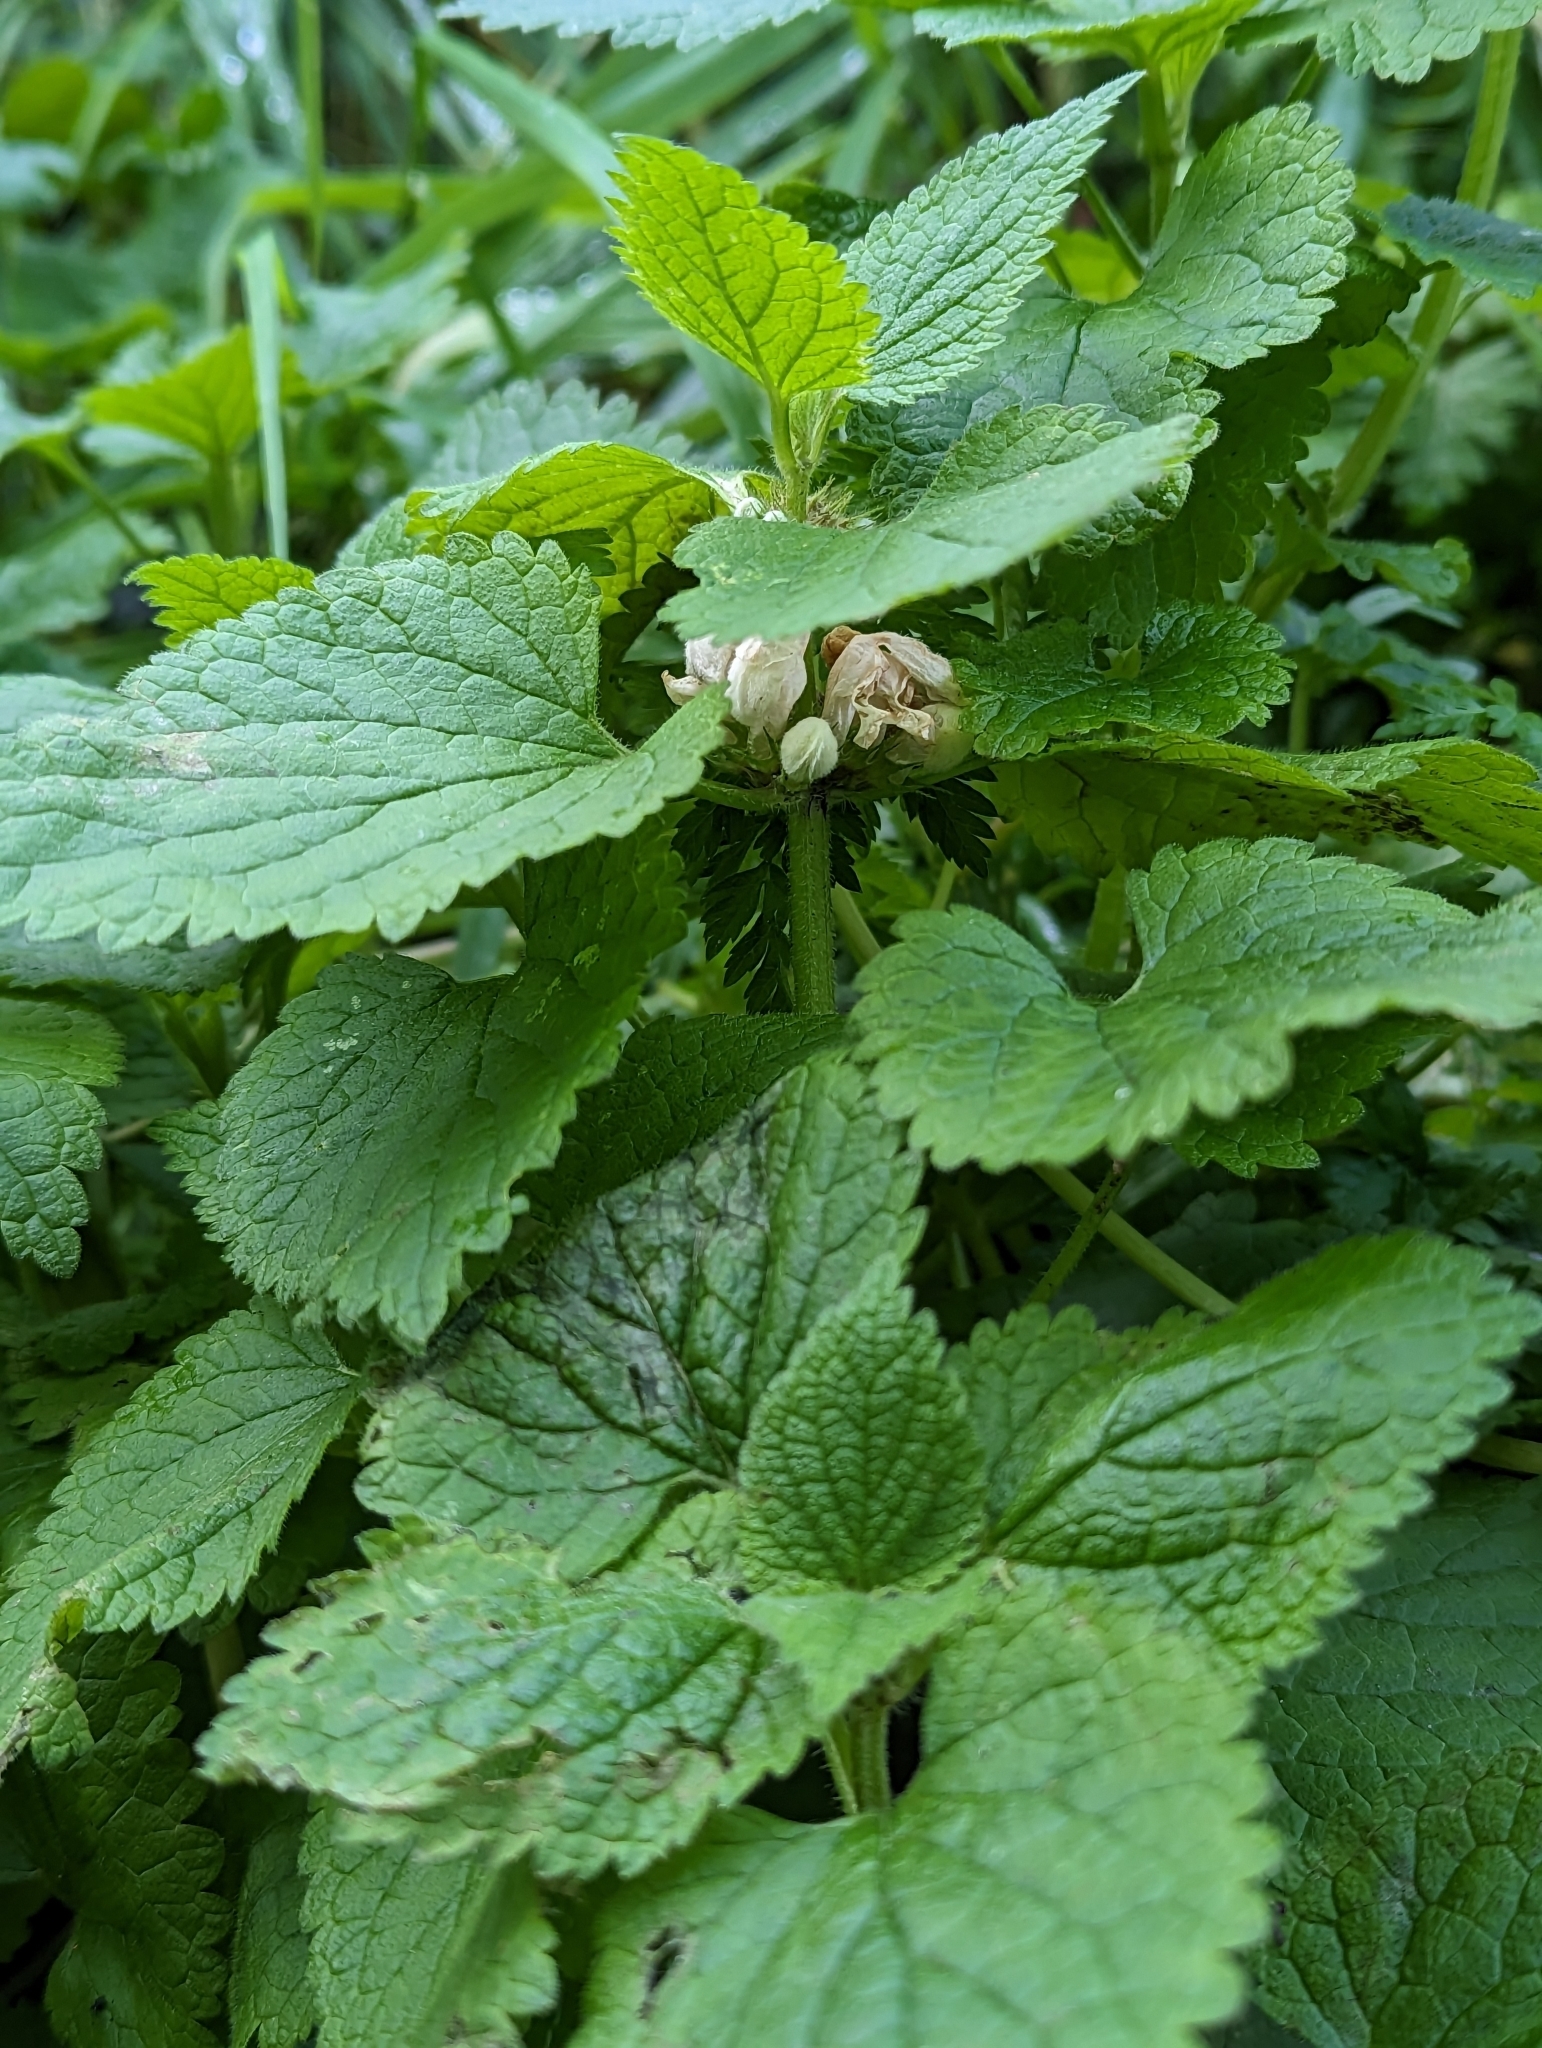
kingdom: Plantae
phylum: Tracheophyta
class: Magnoliopsida
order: Lamiales
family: Lamiaceae
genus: Lamium
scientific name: Lamium album
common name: White dead-nettle
